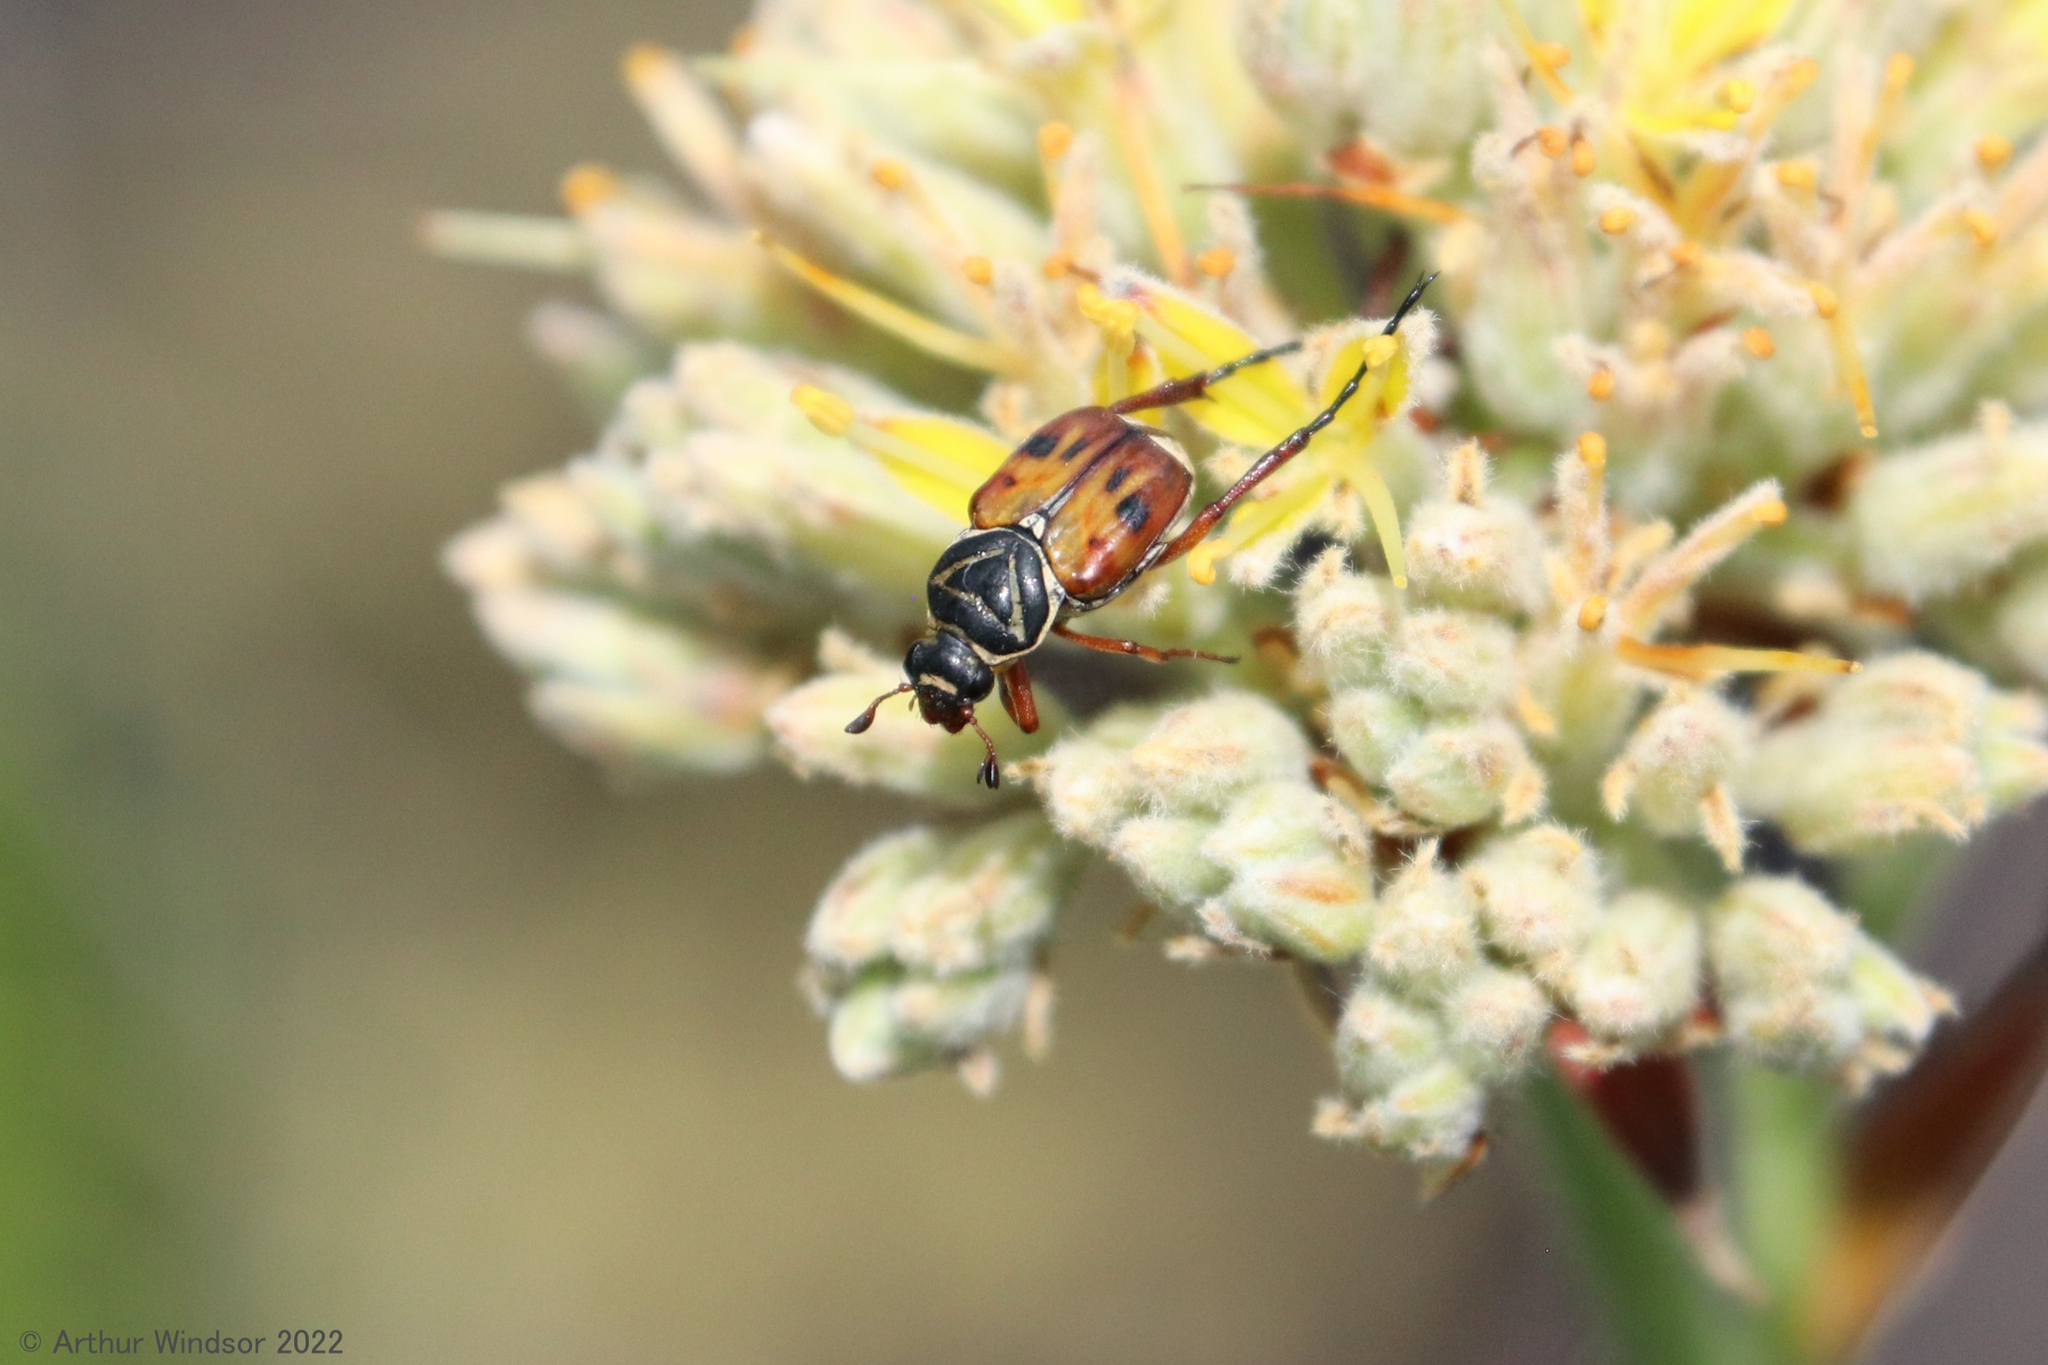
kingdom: Animalia
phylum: Arthropoda
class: Insecta
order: Coleoptera
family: Scarabaeidae
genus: Trigonopeltastes
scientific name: Trigonopeltastes delta
